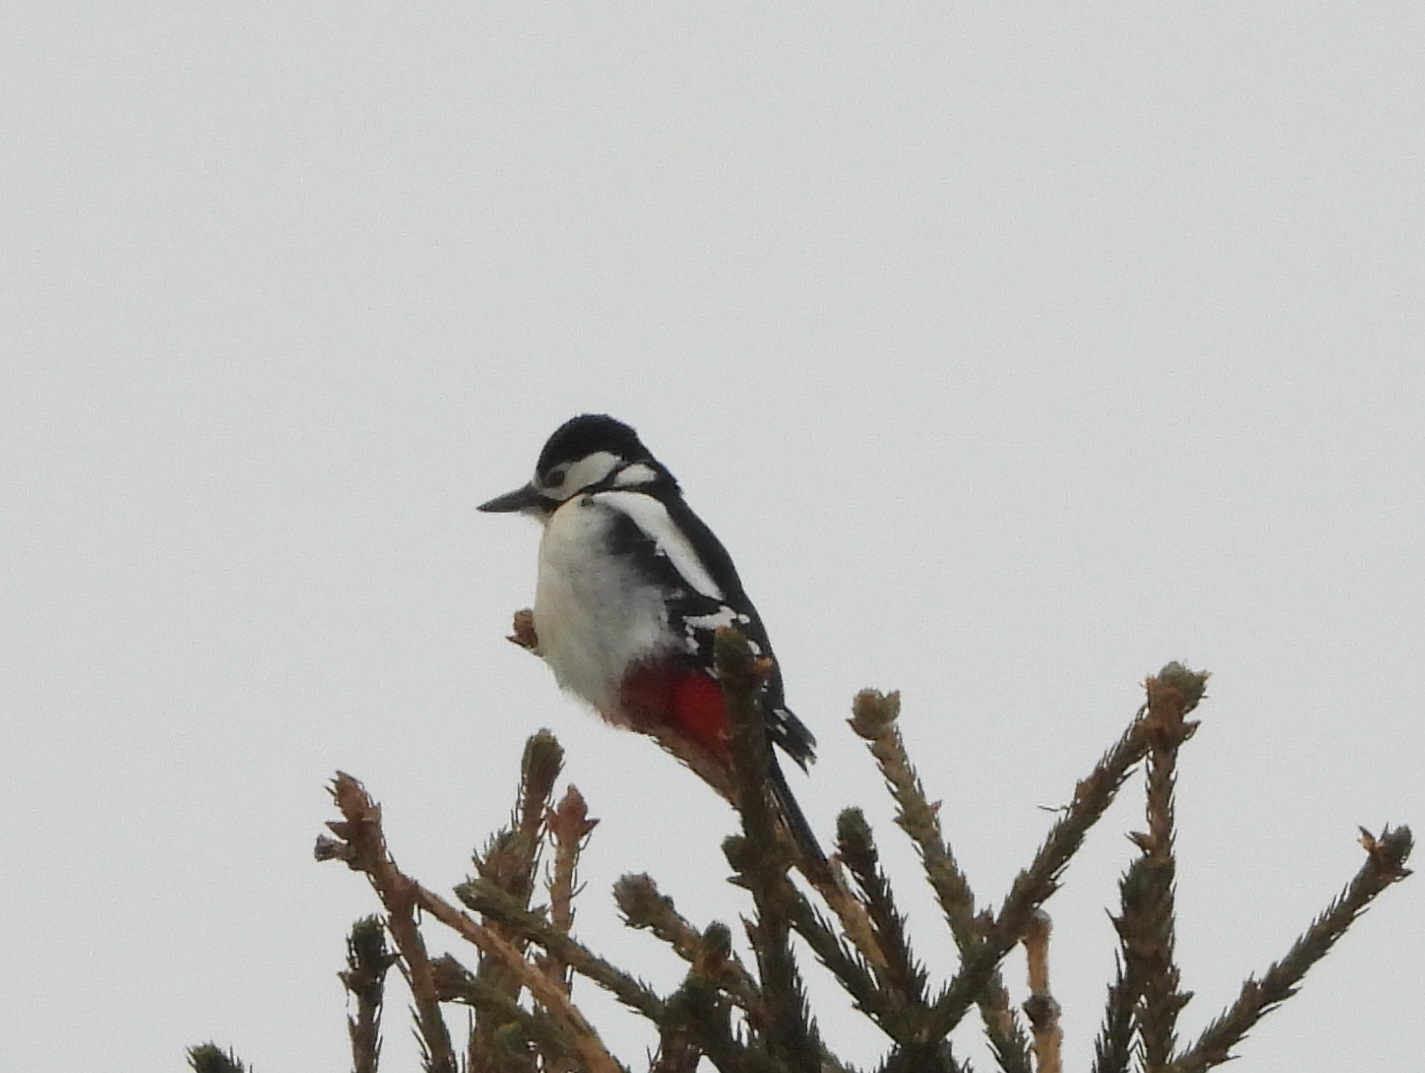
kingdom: Animalia
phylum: Chordata
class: Aves
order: Piciformes
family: Picidae
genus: Dendrocopos
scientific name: Dendrocopos major
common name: Great spotted woodpecker
